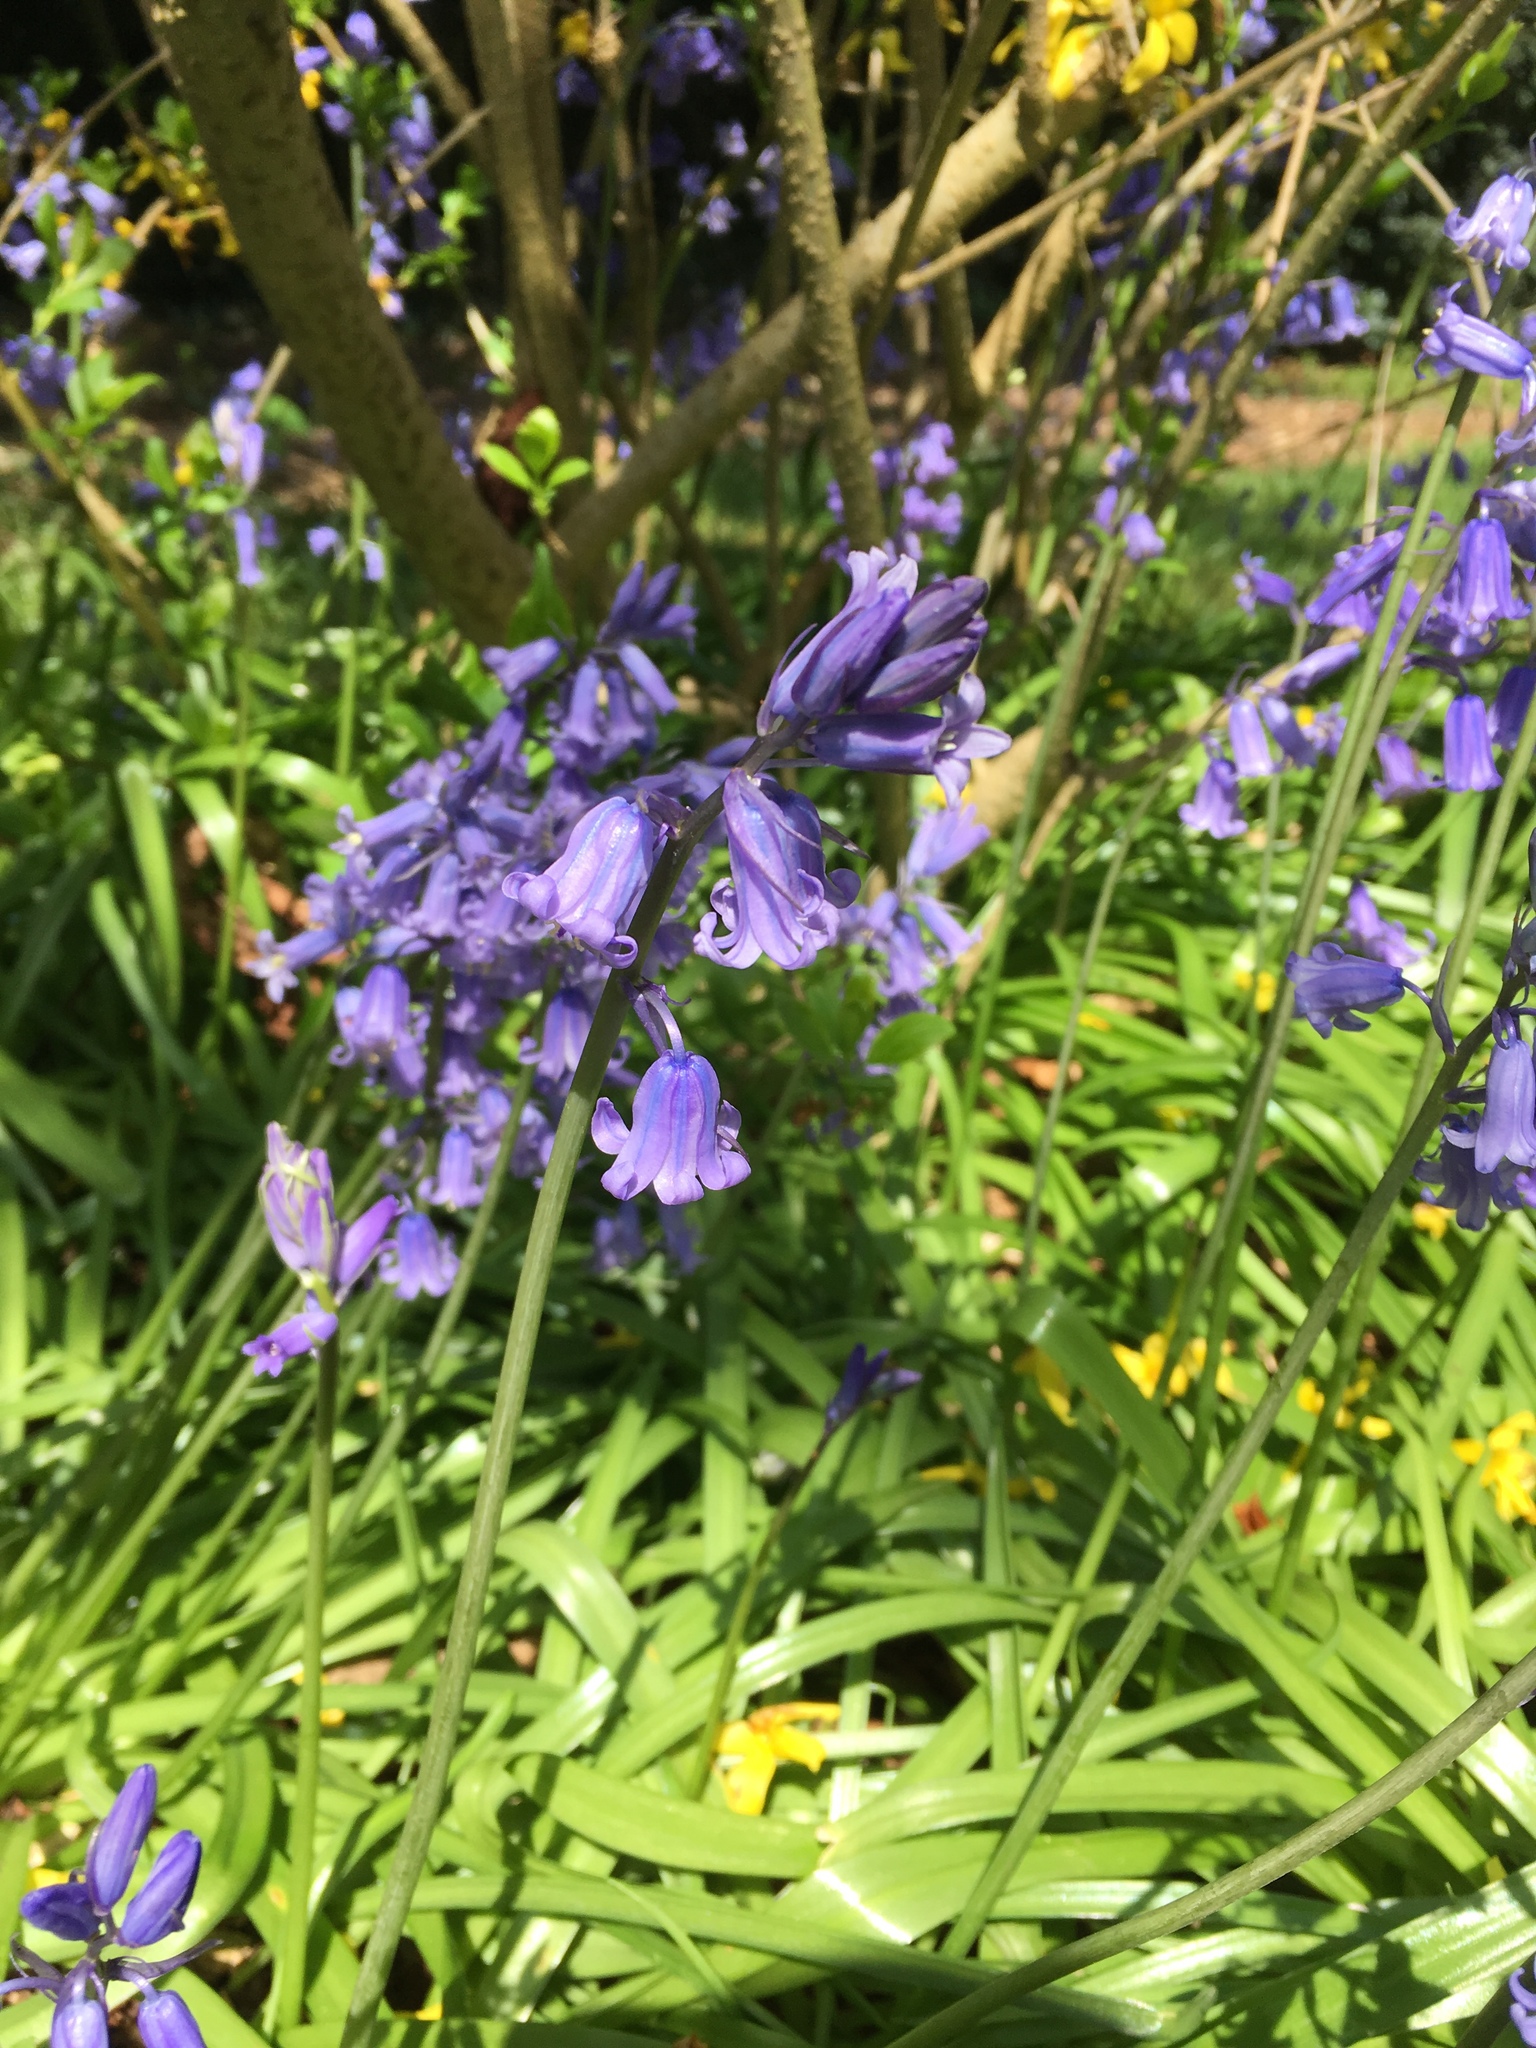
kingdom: Plantae
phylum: Tracheophyta
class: Liliopsida
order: Asparagales
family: Asparagaceae
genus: Hyacinthoides
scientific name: Hyacinthoides non-scripta
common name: Bluebell
